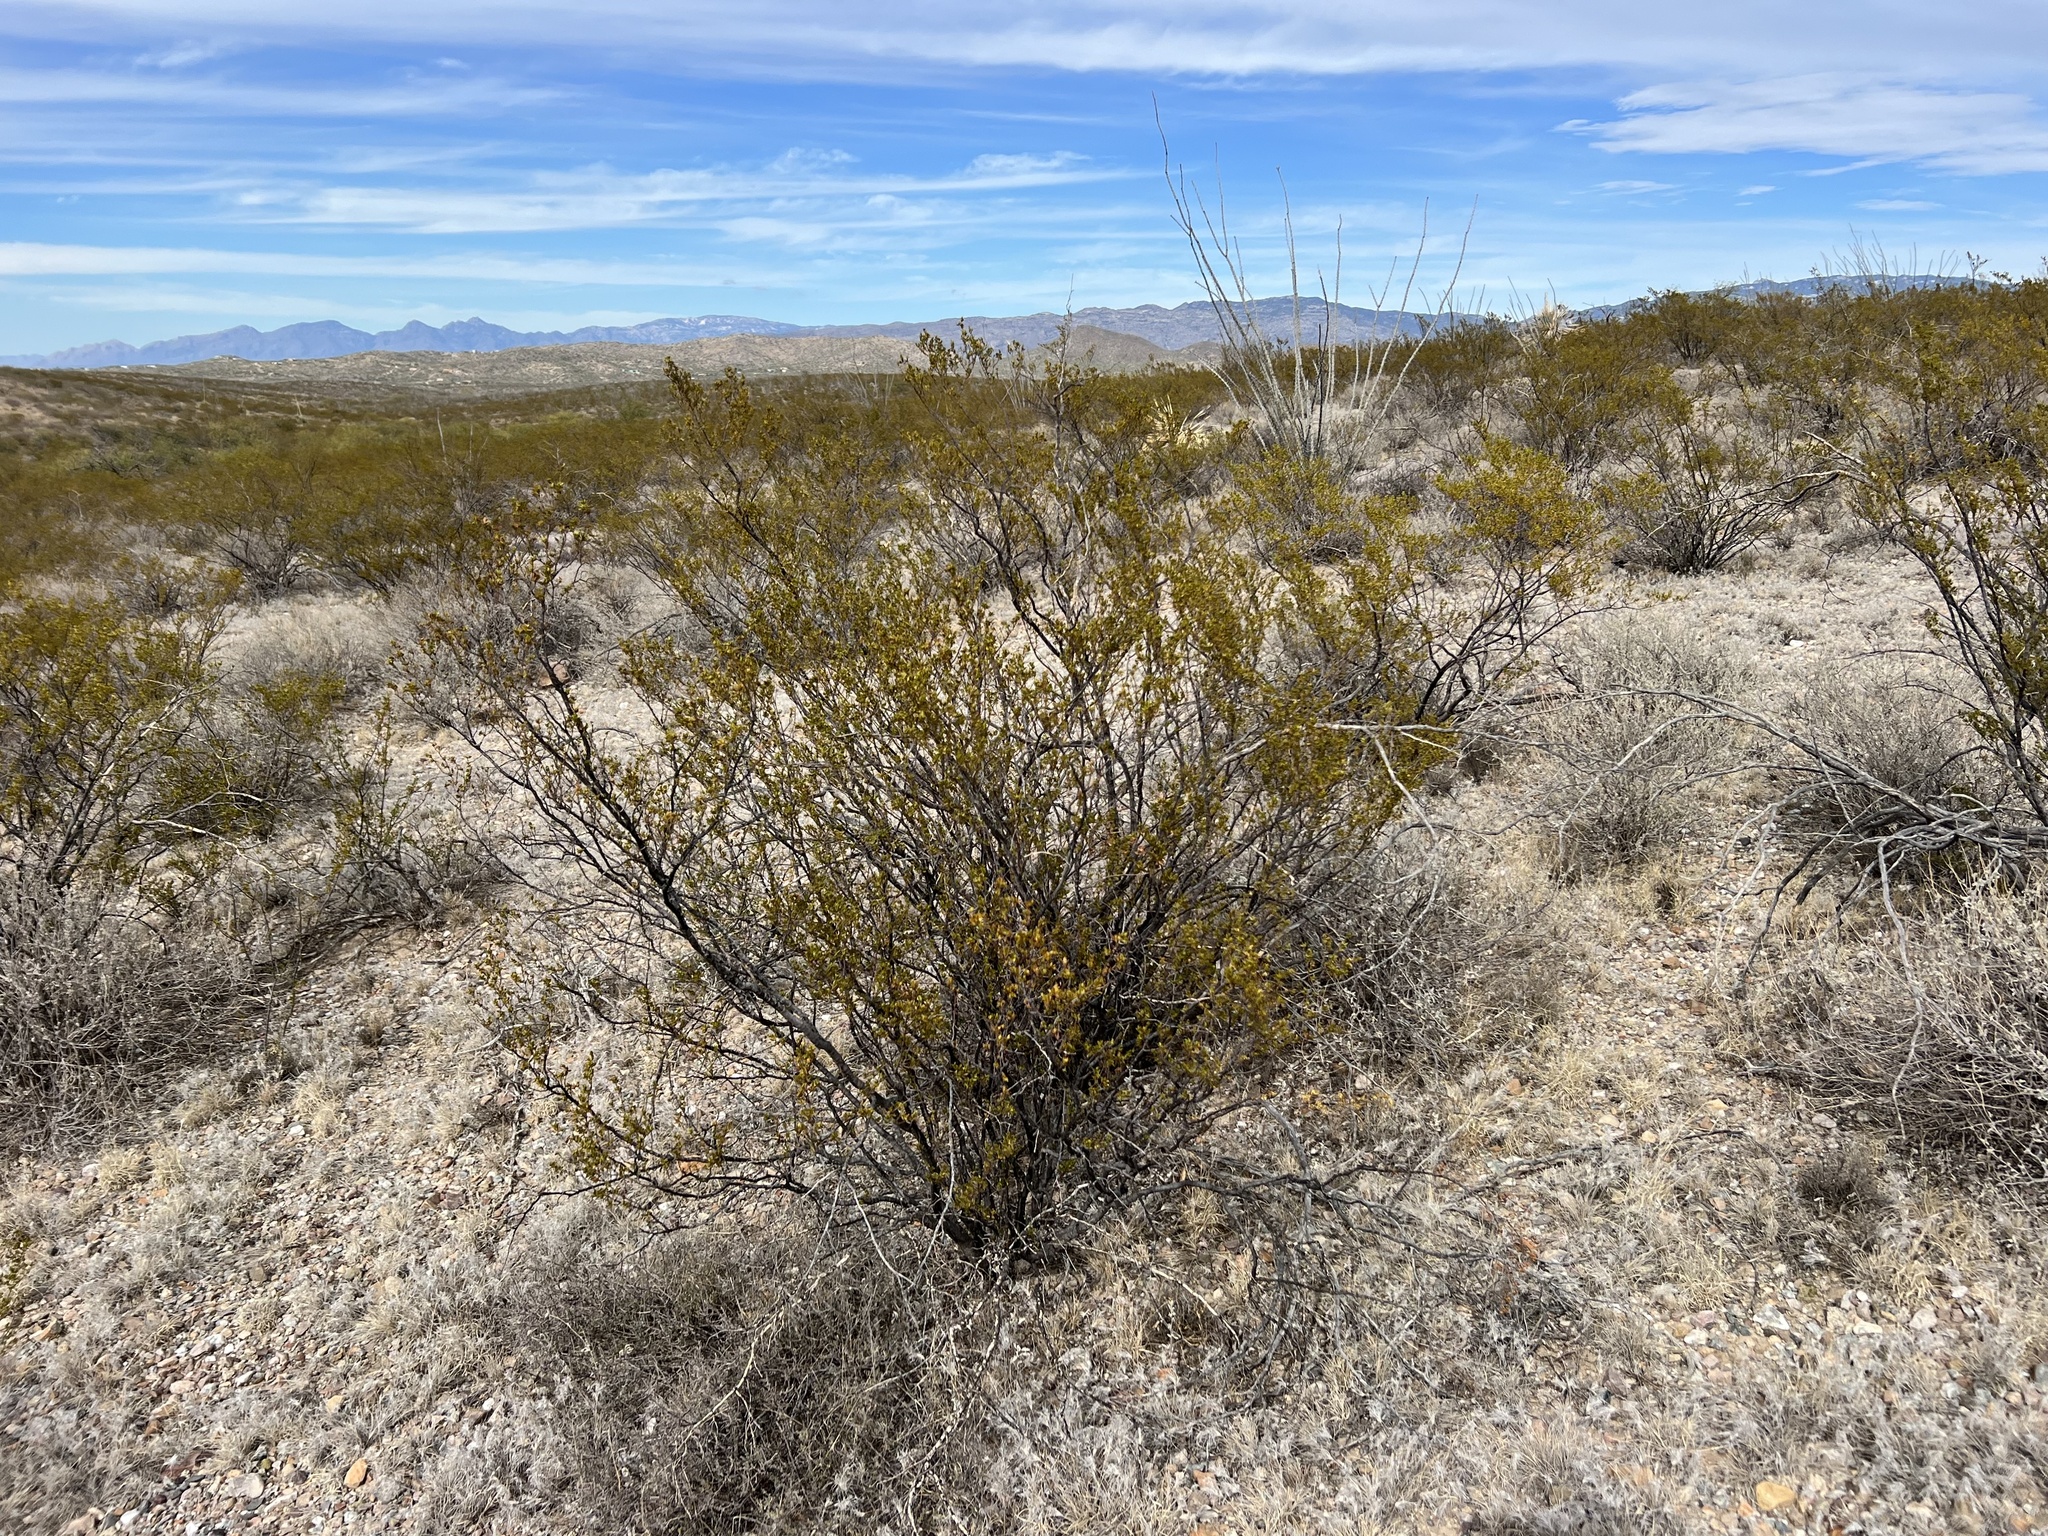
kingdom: Plantae
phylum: Tracheophyta
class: Magnoliopsida
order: Zygophyllales
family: Zygophyllaceae
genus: Larrea
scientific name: Larrea tridentata
